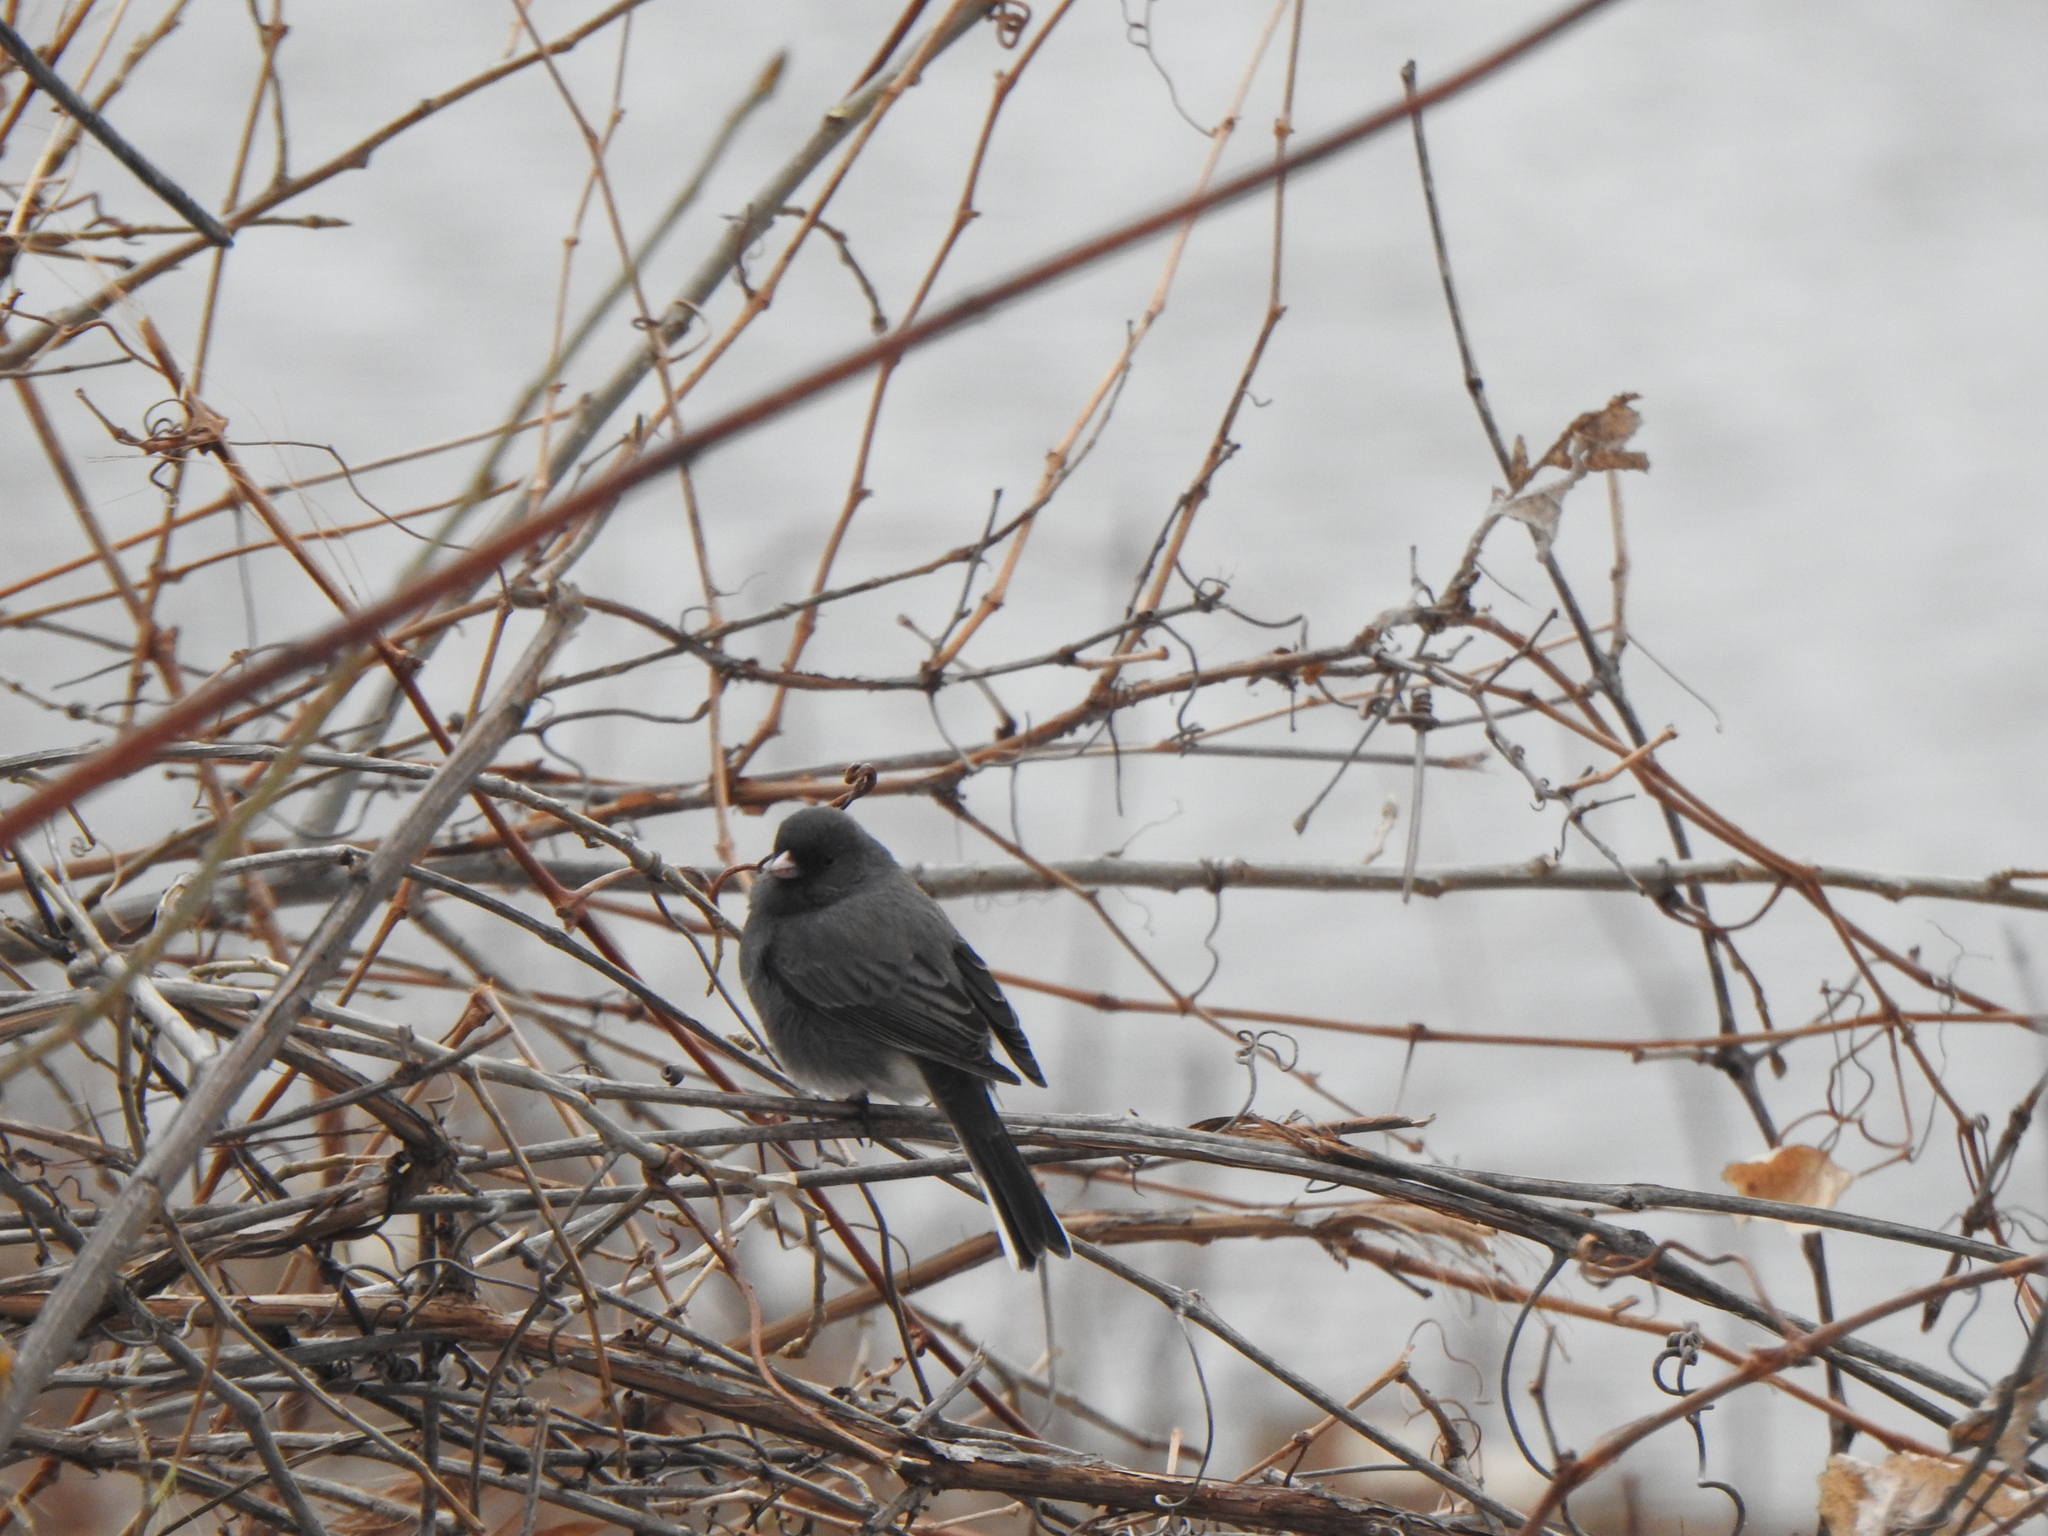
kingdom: Animalia
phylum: Chordata
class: Aves
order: Passeriformes
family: Passerellidae
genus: Junco
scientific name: Junco hyemalis
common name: Dark-eyed junco
